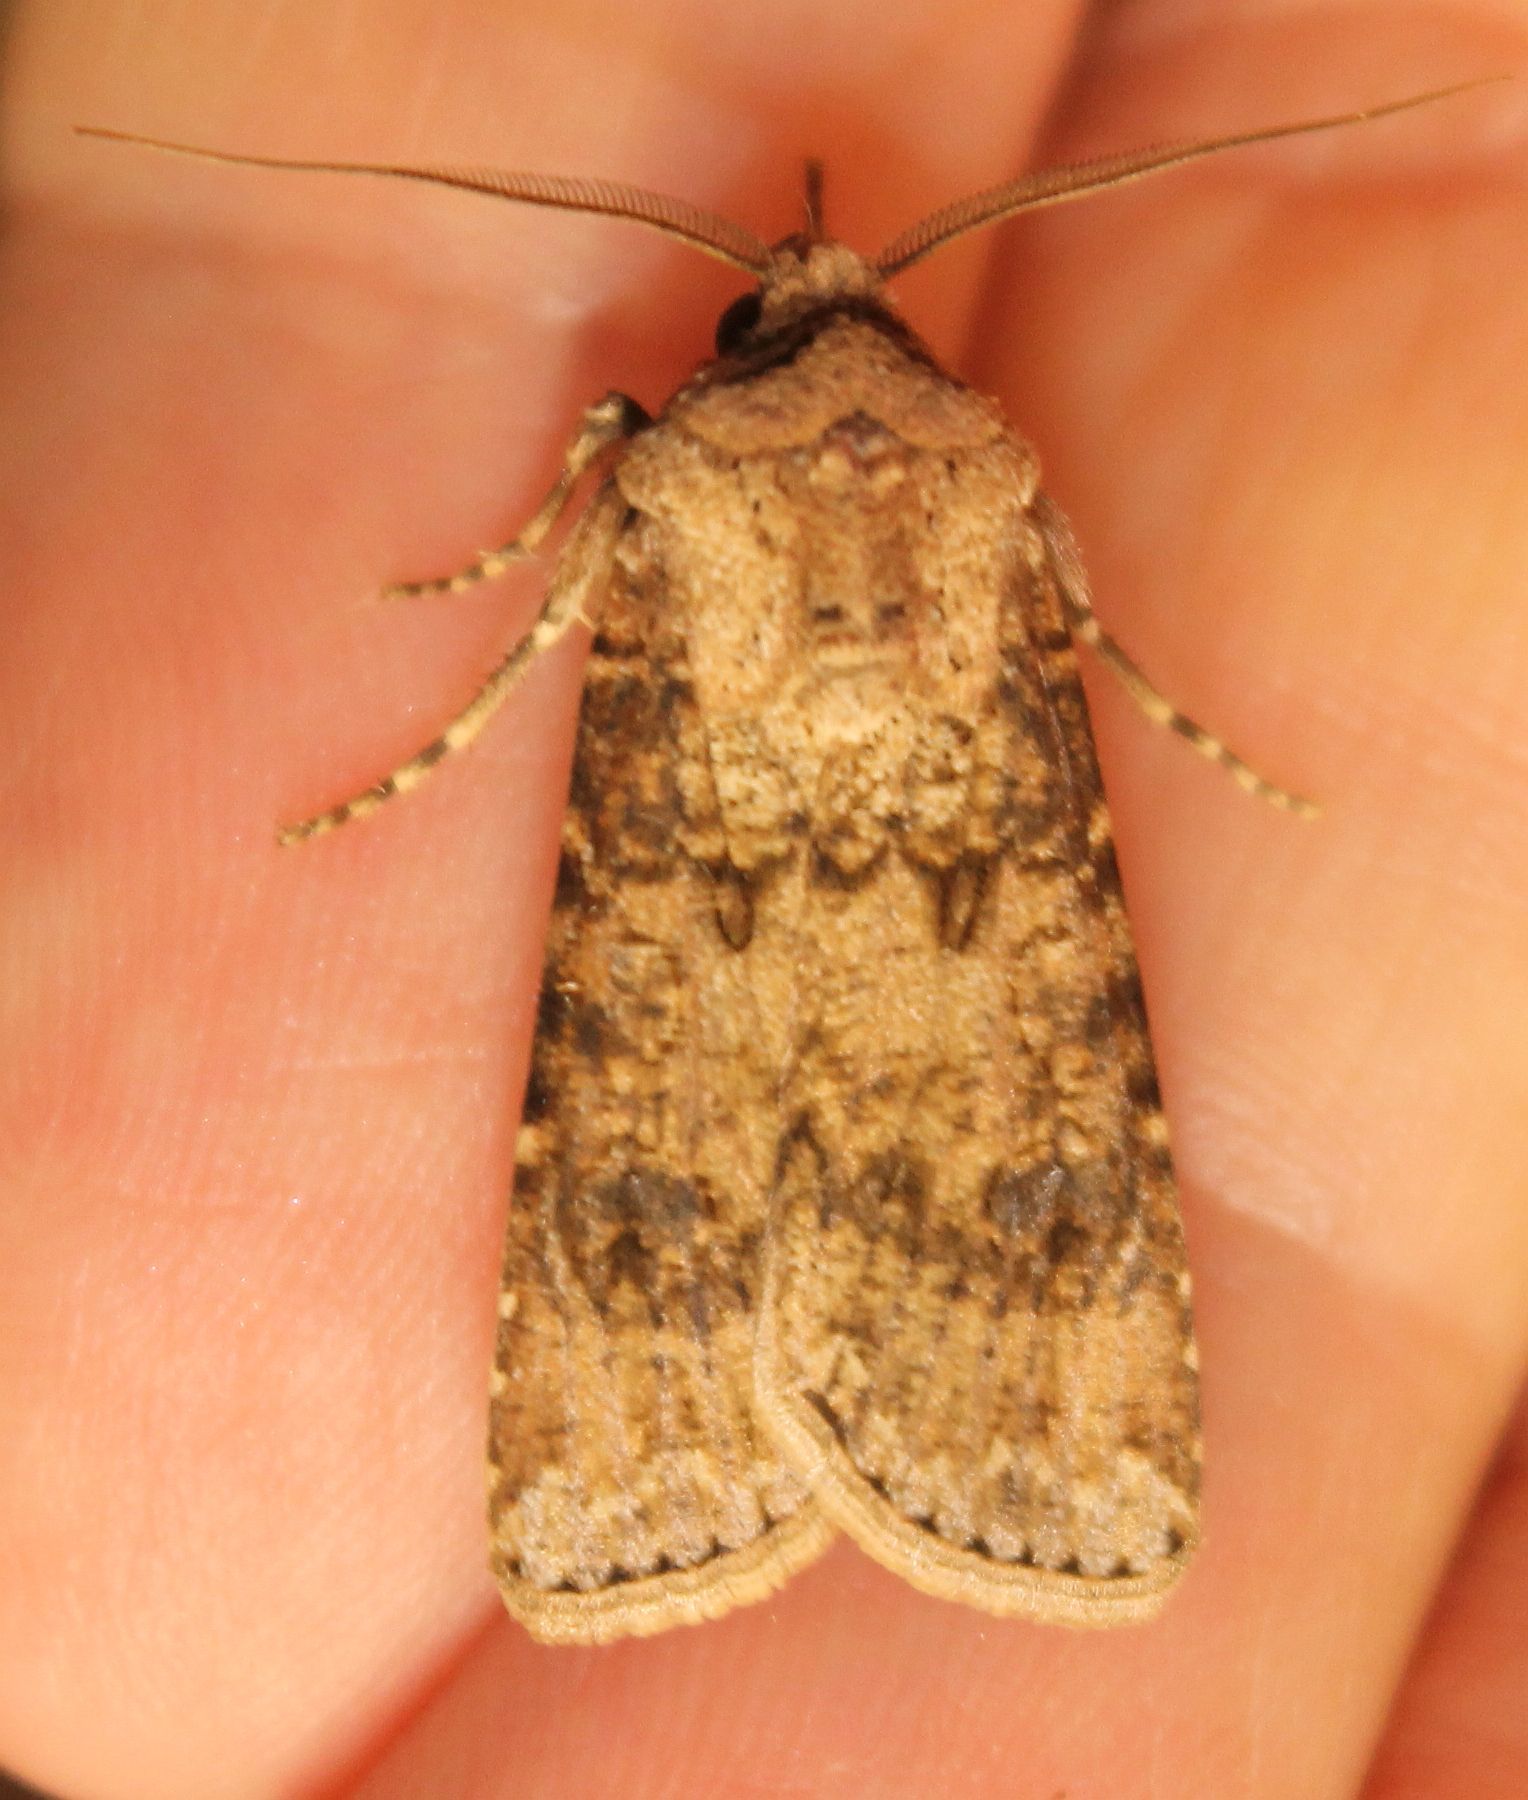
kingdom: Animalia
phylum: Arthropoda
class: Insecta
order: Lepidoptera
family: Noctuidae
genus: Agrotis
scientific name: Agrotis segetum
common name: Turnip moth
